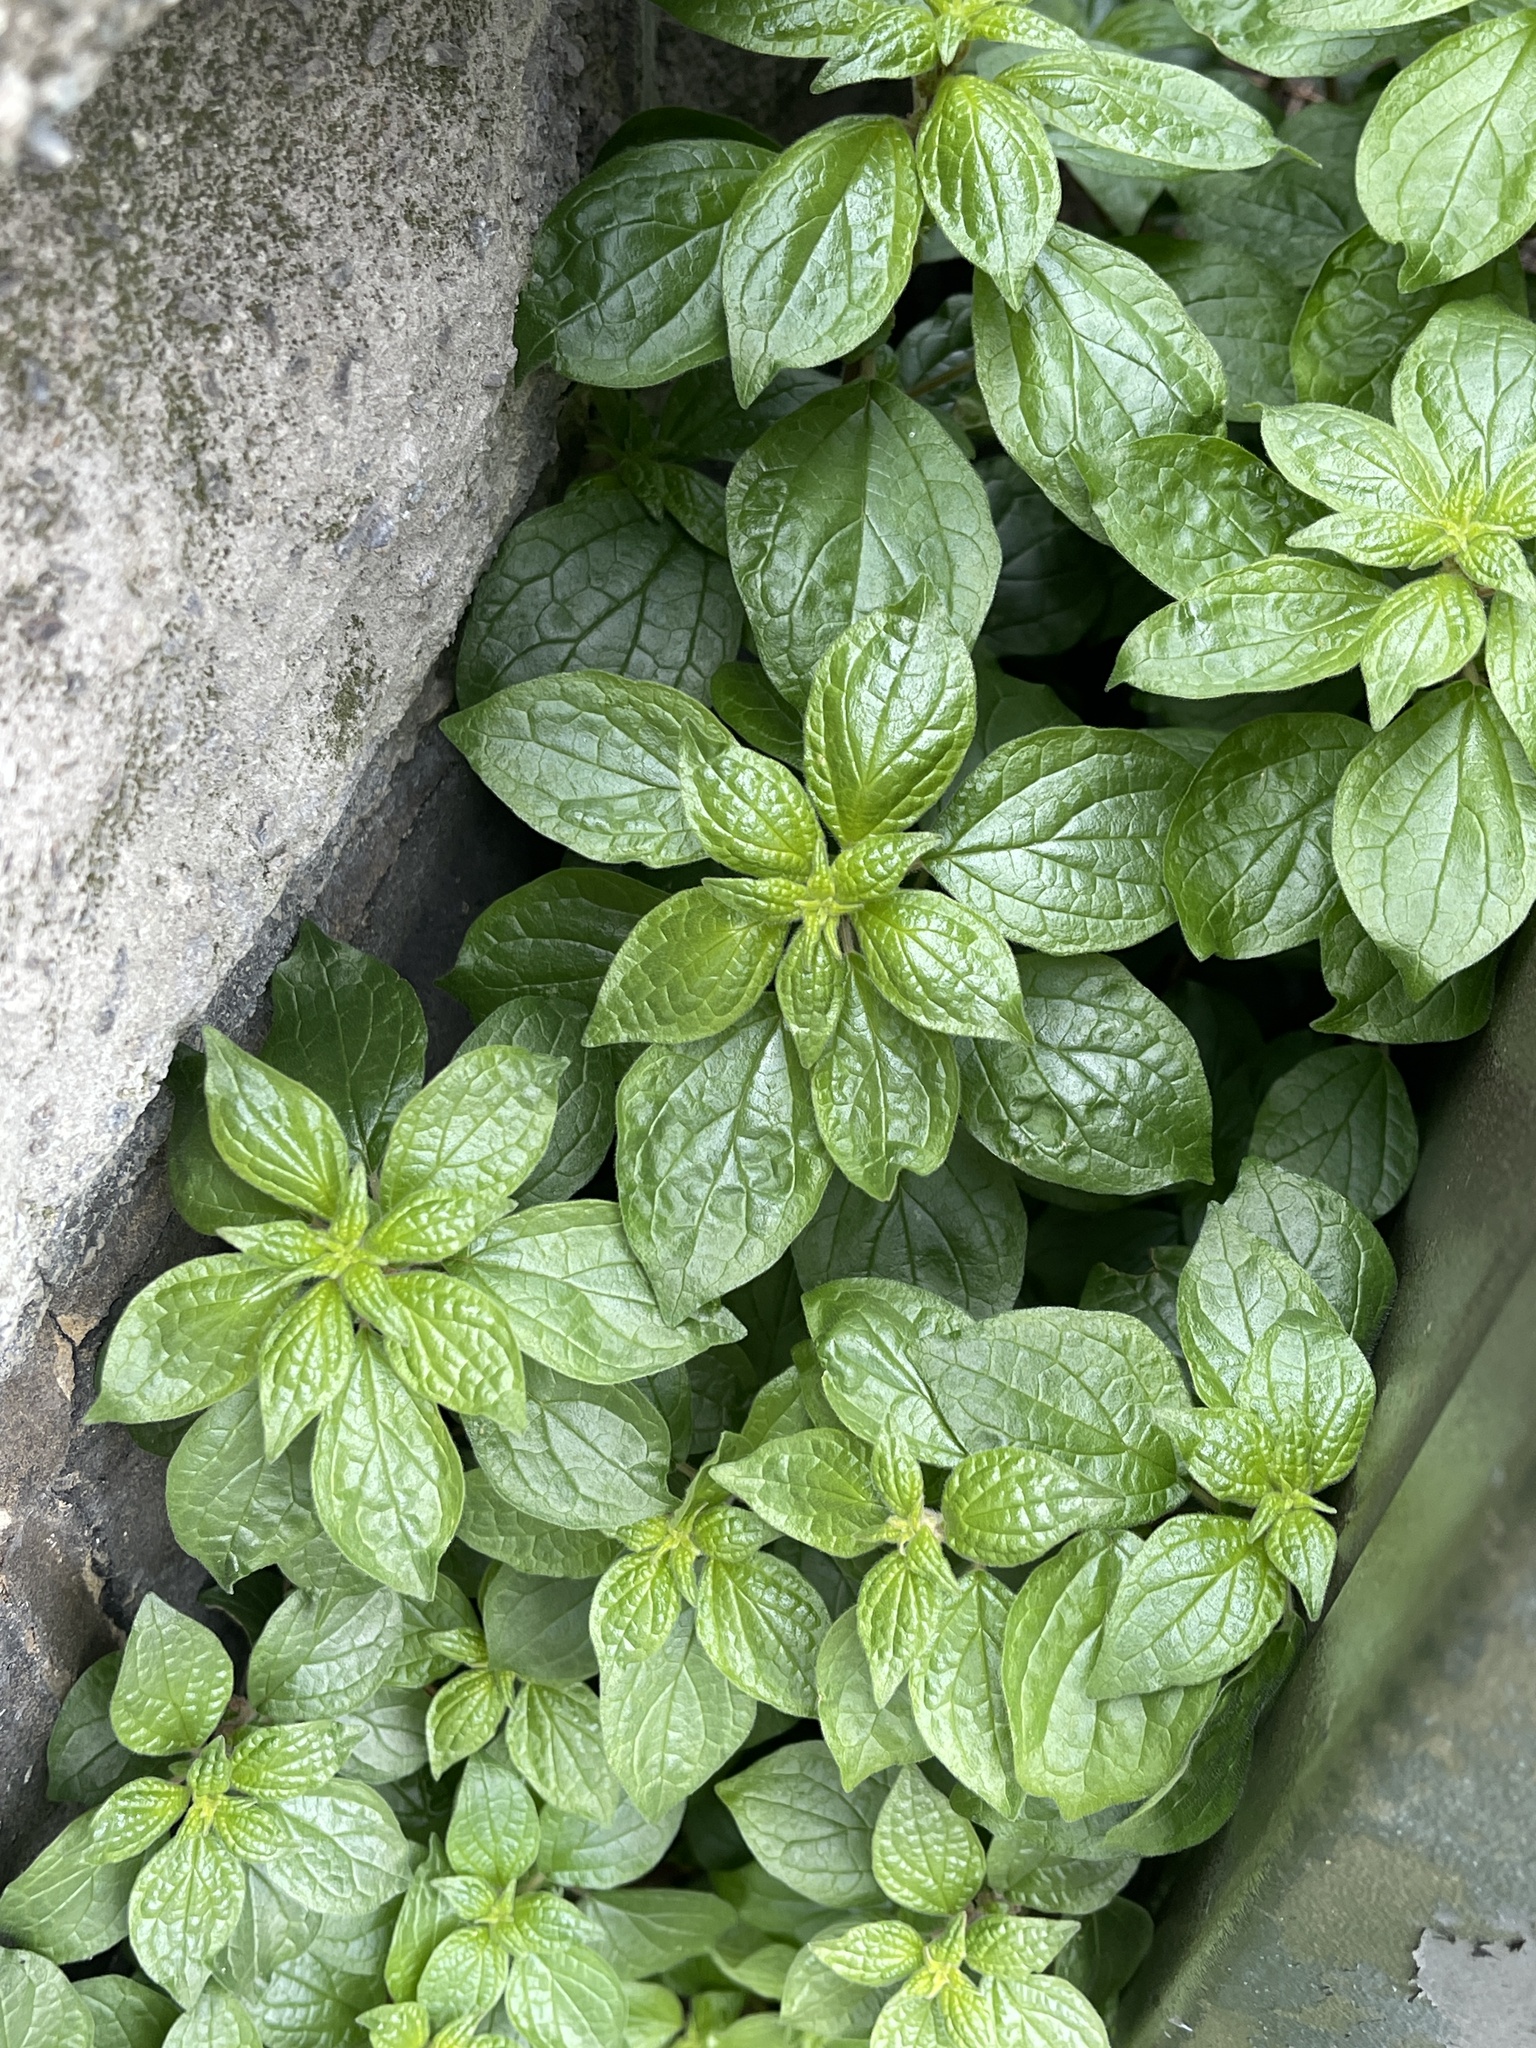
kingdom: Plantae
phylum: Tracheophyta
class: Magnoliopsida
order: Rosales
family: Urticaceae
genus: Parietaria
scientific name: Parietaria judaica
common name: Pellitory-of-the-wall
